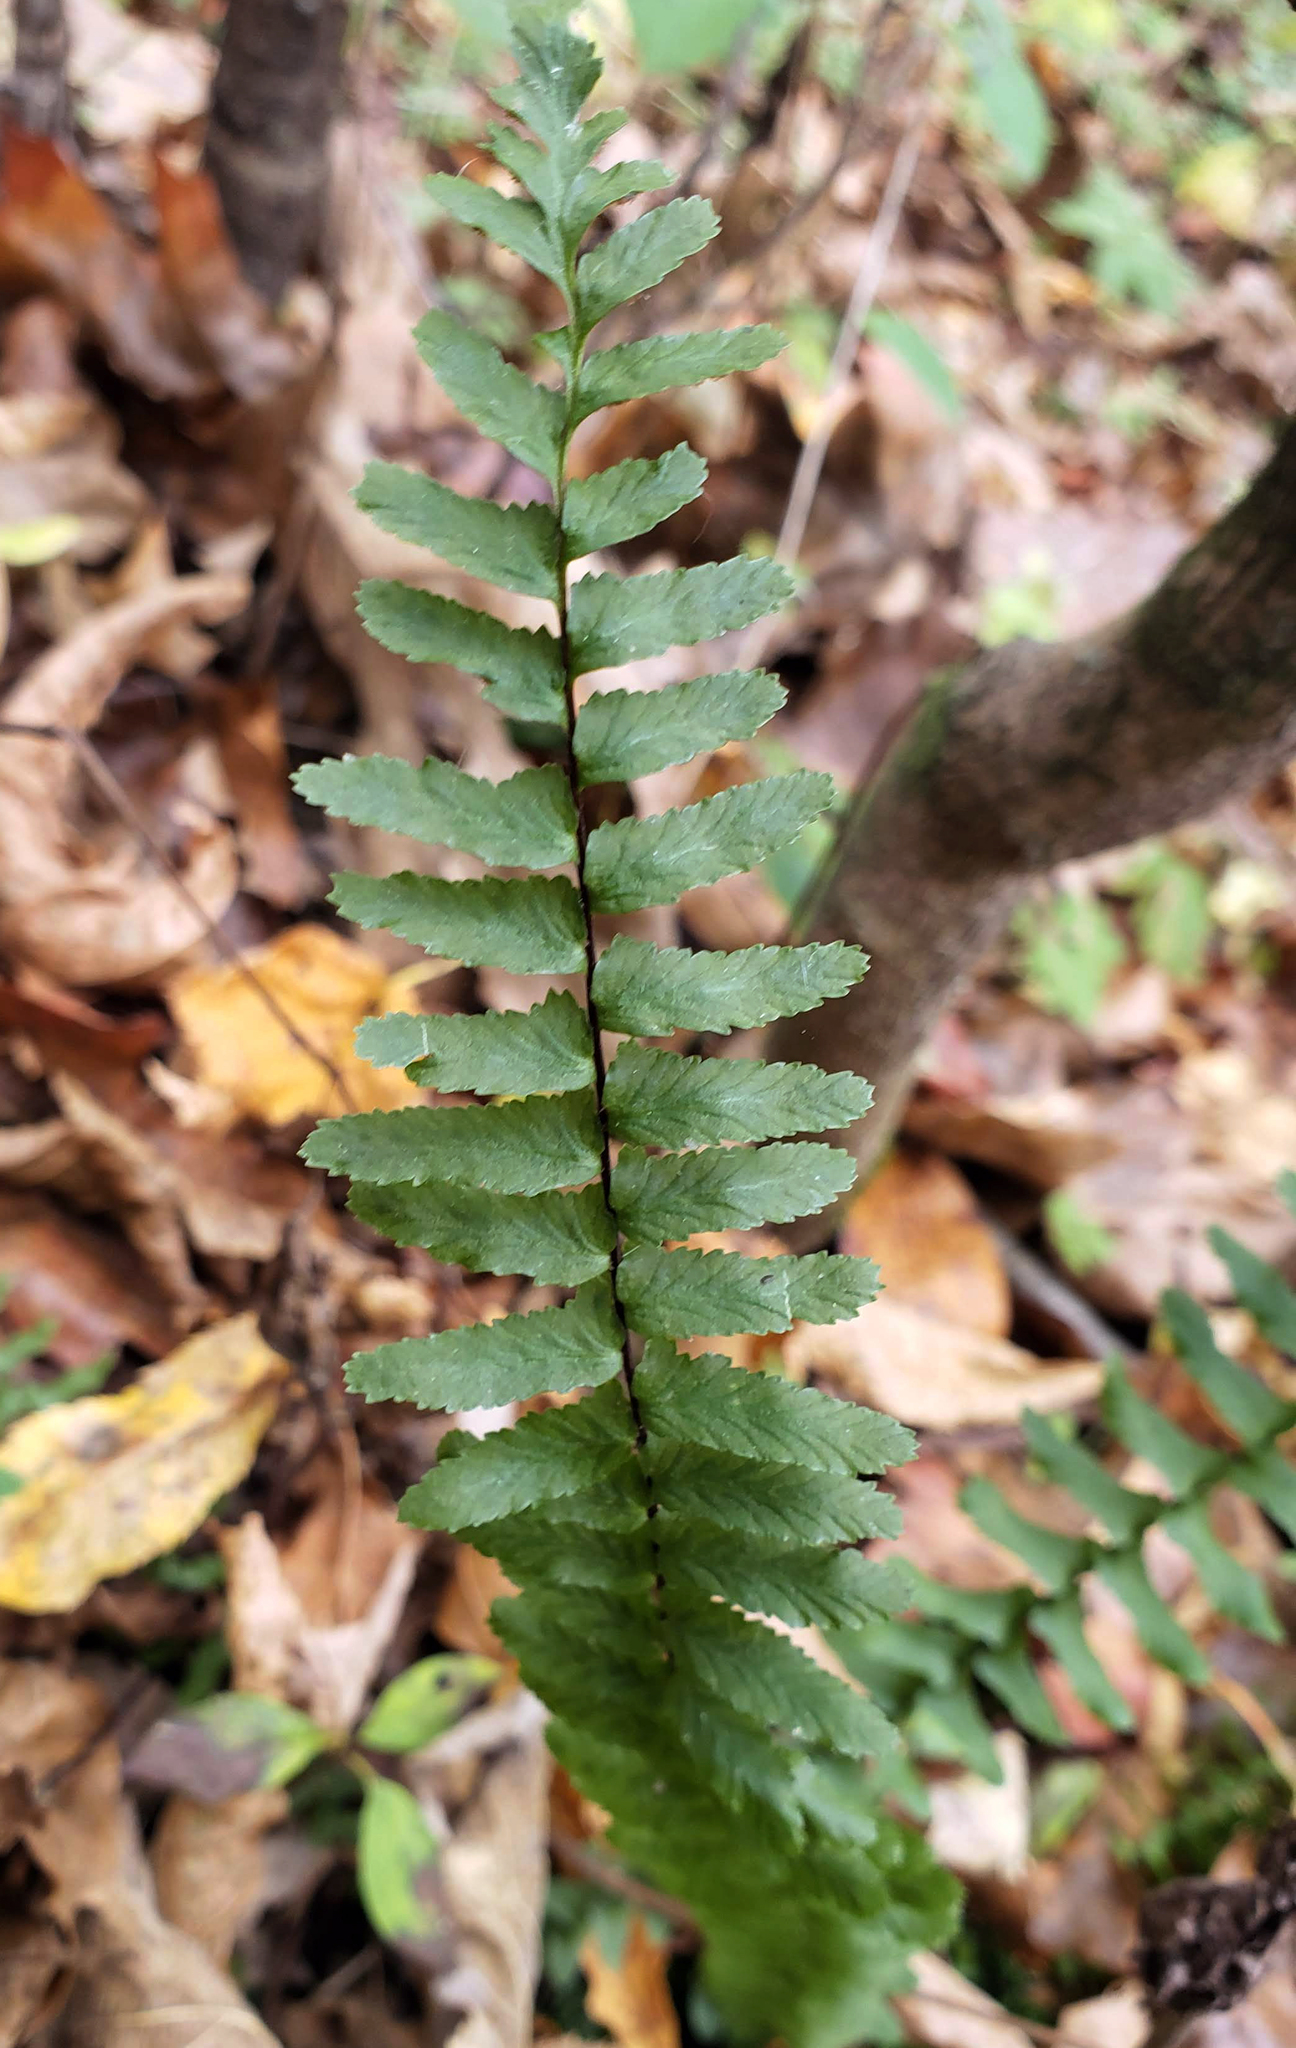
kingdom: Plantae
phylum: Tracheophyta
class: Polypodiopsida
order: Polypodiales
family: Aspleniaceae
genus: Asplenium
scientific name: Asplenium platyneuron
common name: Ebony spleenwort
